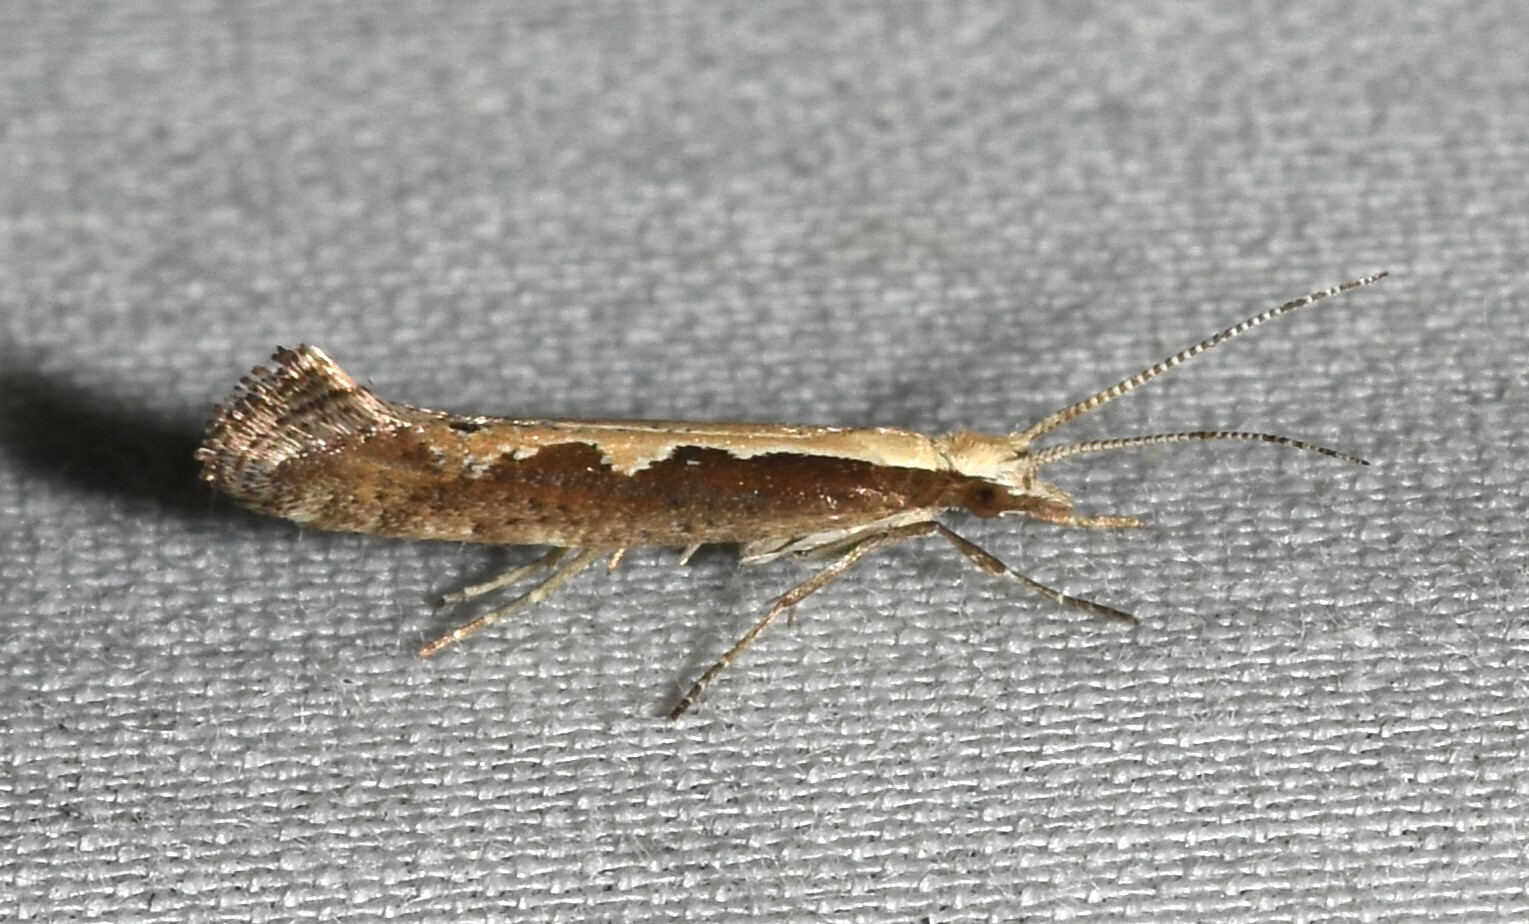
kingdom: Animalia
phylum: Arthropoda
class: Insecta
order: Lepidoptera
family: Plutellidae
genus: Plutella
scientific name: Plutella xylostella
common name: Diamond-back moth
